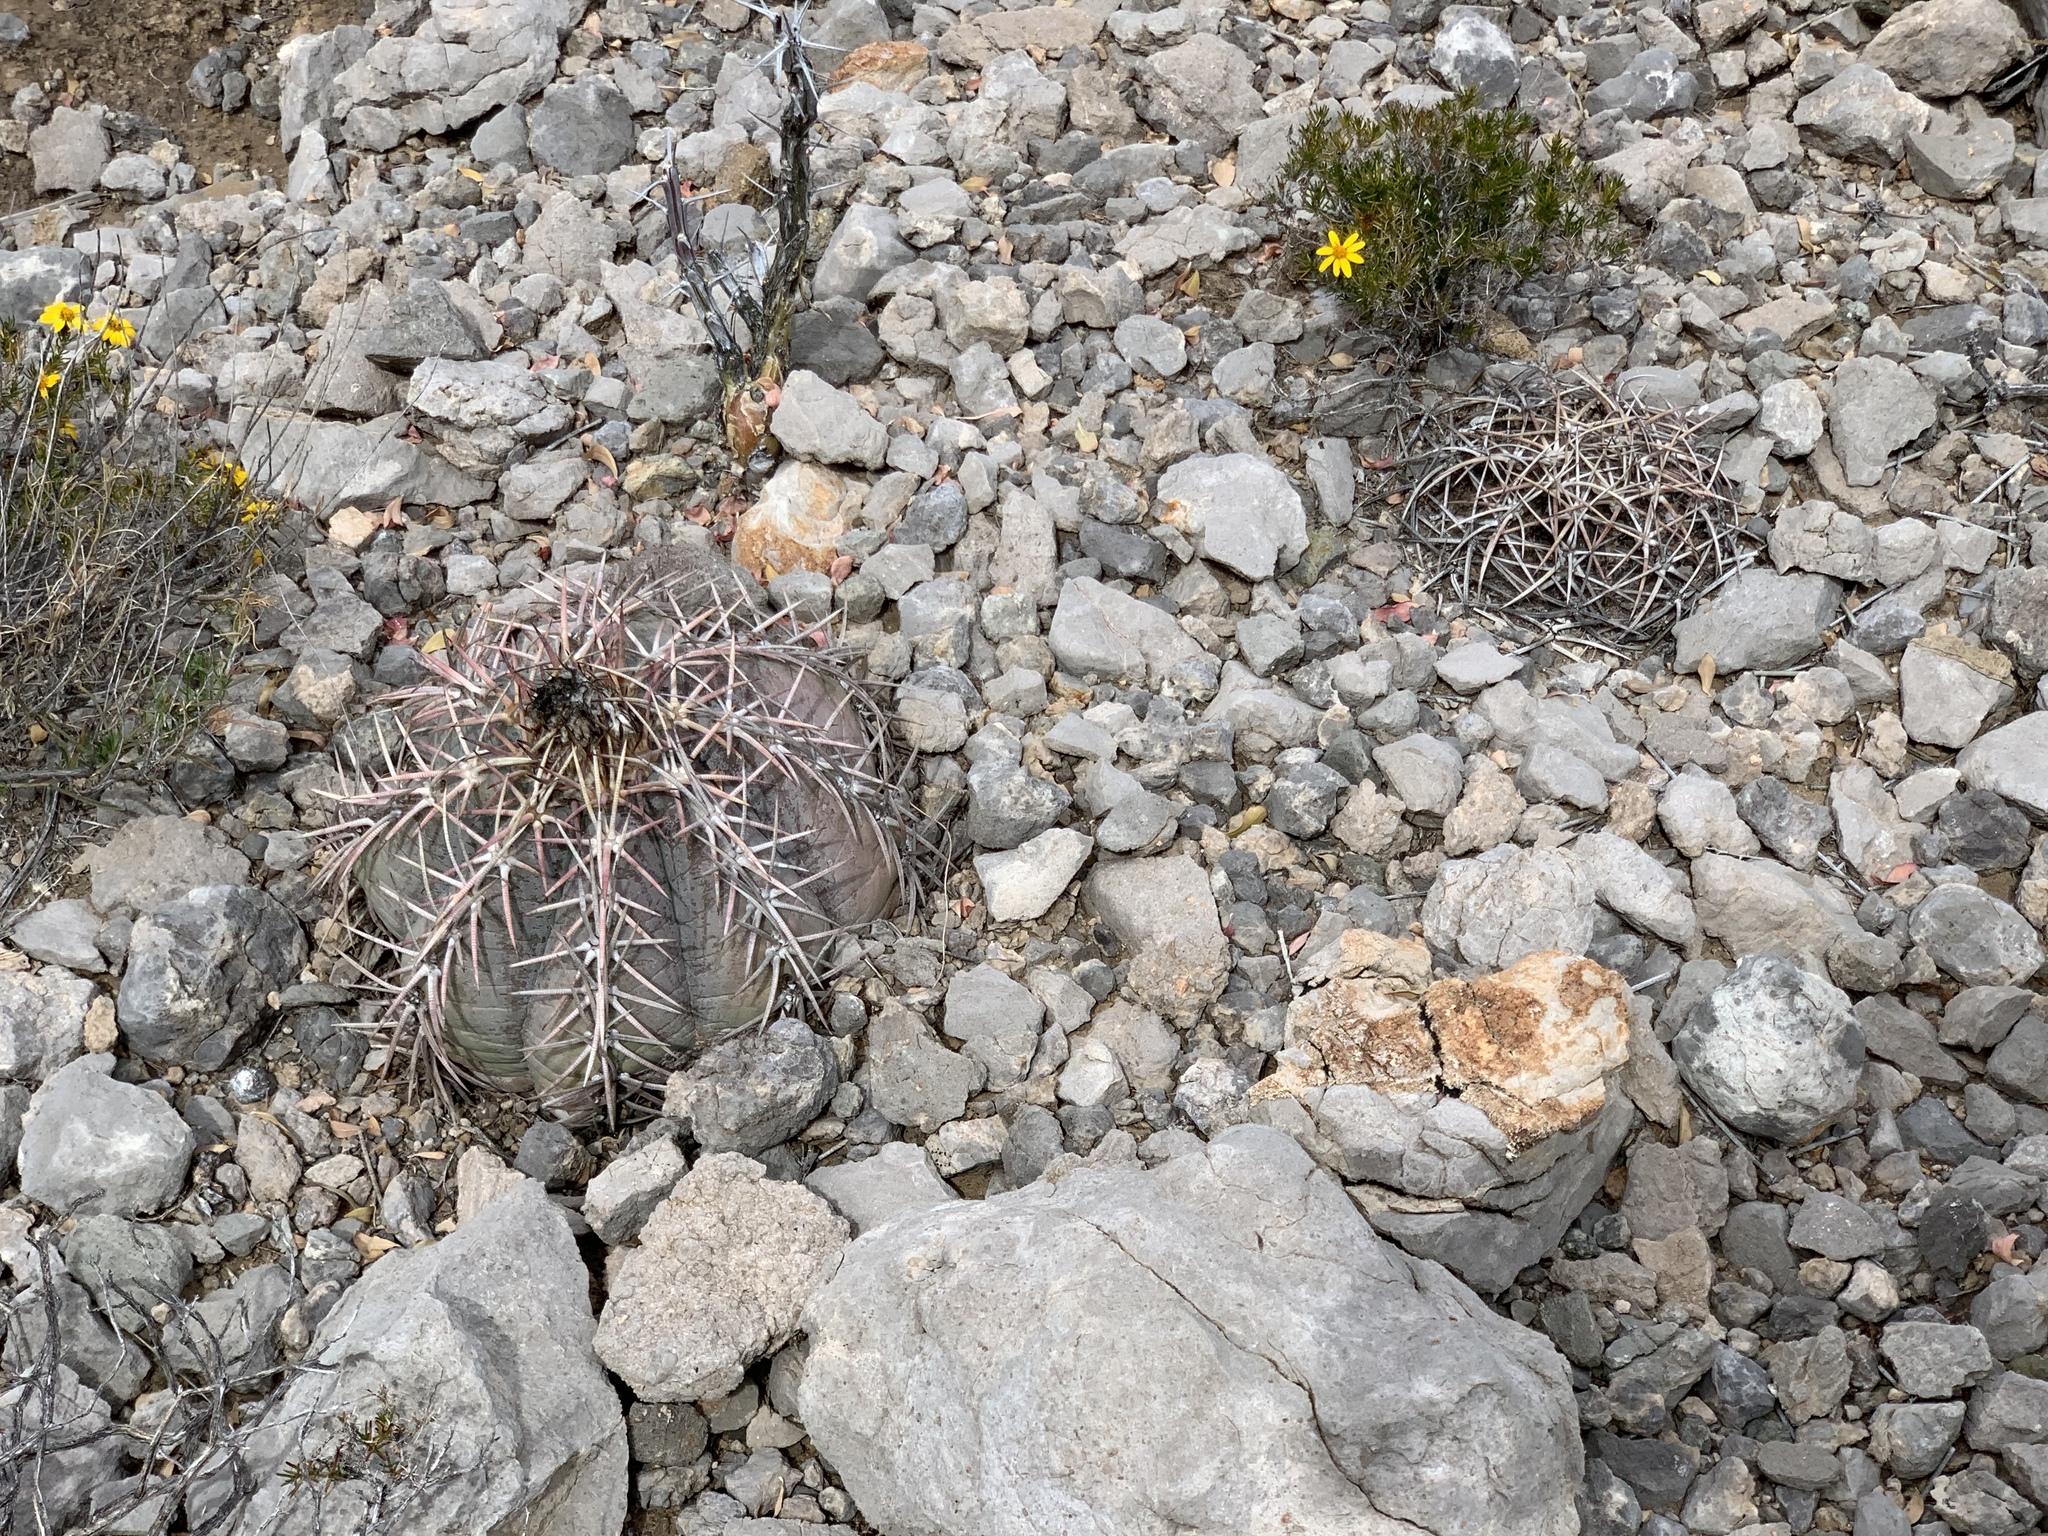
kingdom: Plantae
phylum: Tracheophyta
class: Magnoliopsida
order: Caryophyllales
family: Cactaceae
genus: Echinocactus
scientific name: Echinocactus horizonthalonius
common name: Devilshead
